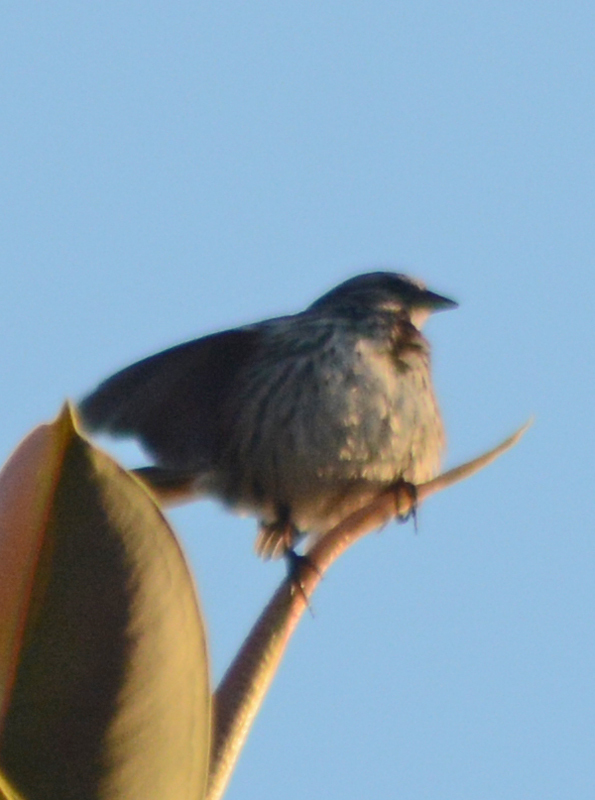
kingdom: Animalia
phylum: Chordata
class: Aves
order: Passeriformes
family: Passerellidae
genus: Melospiza
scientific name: Melospiza melodia
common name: Song sparrow
